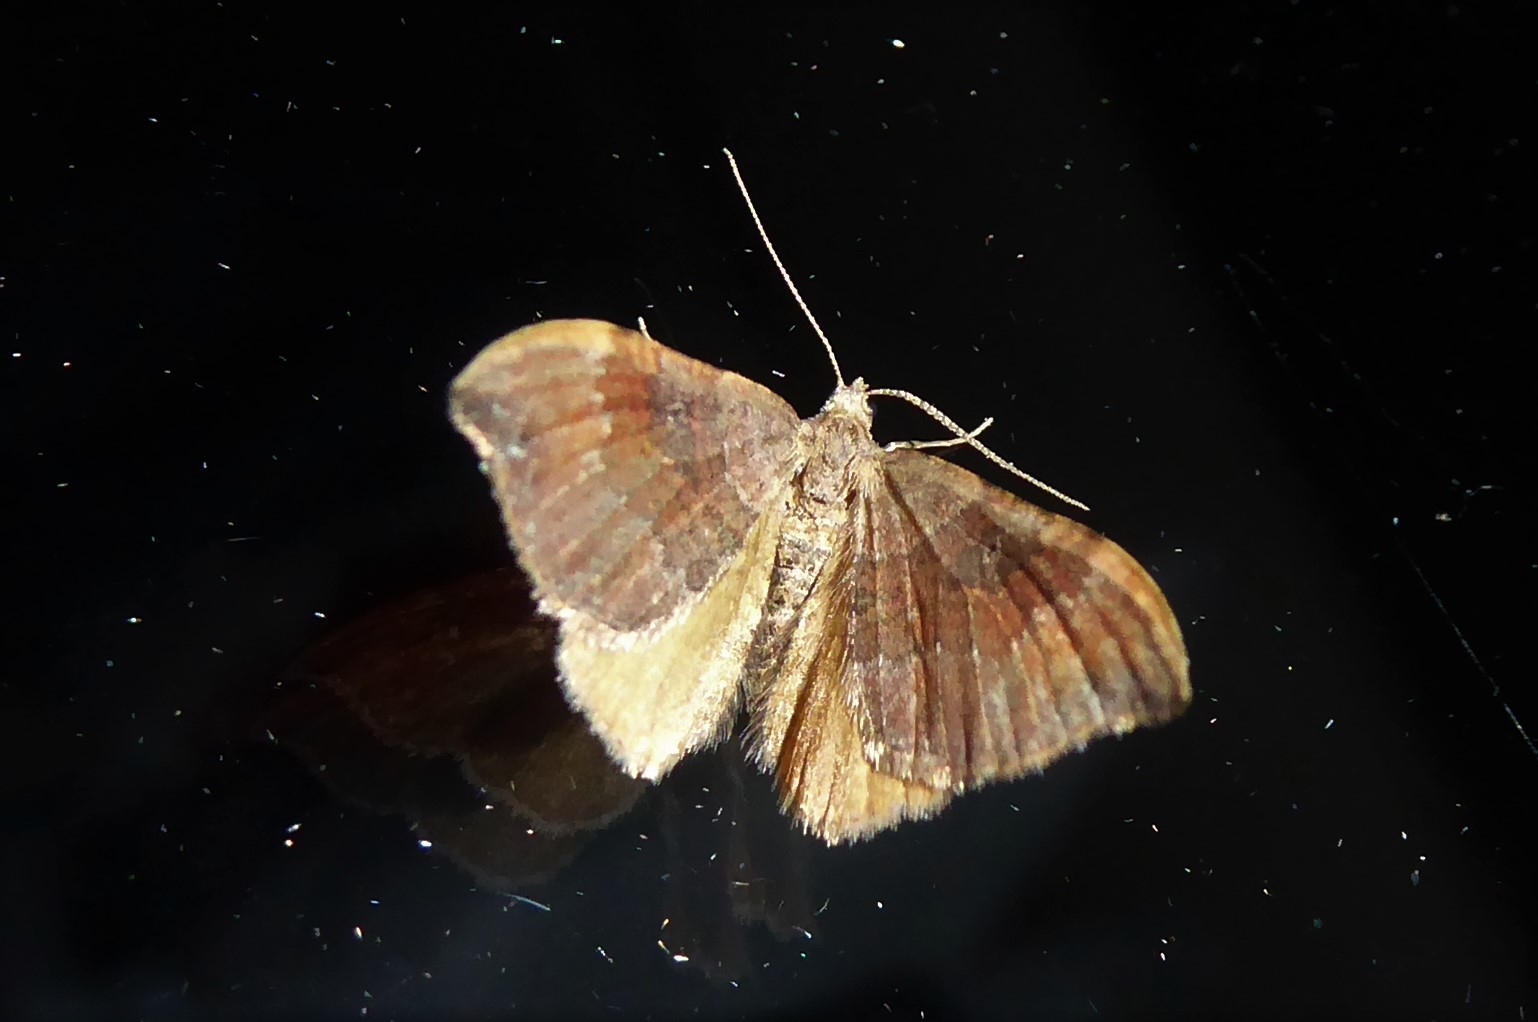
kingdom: Animalia
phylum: Arthropoda
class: Insecta
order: Lepidoptera
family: Geometridae
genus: Homodotis
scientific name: Homodotis megaspilata
